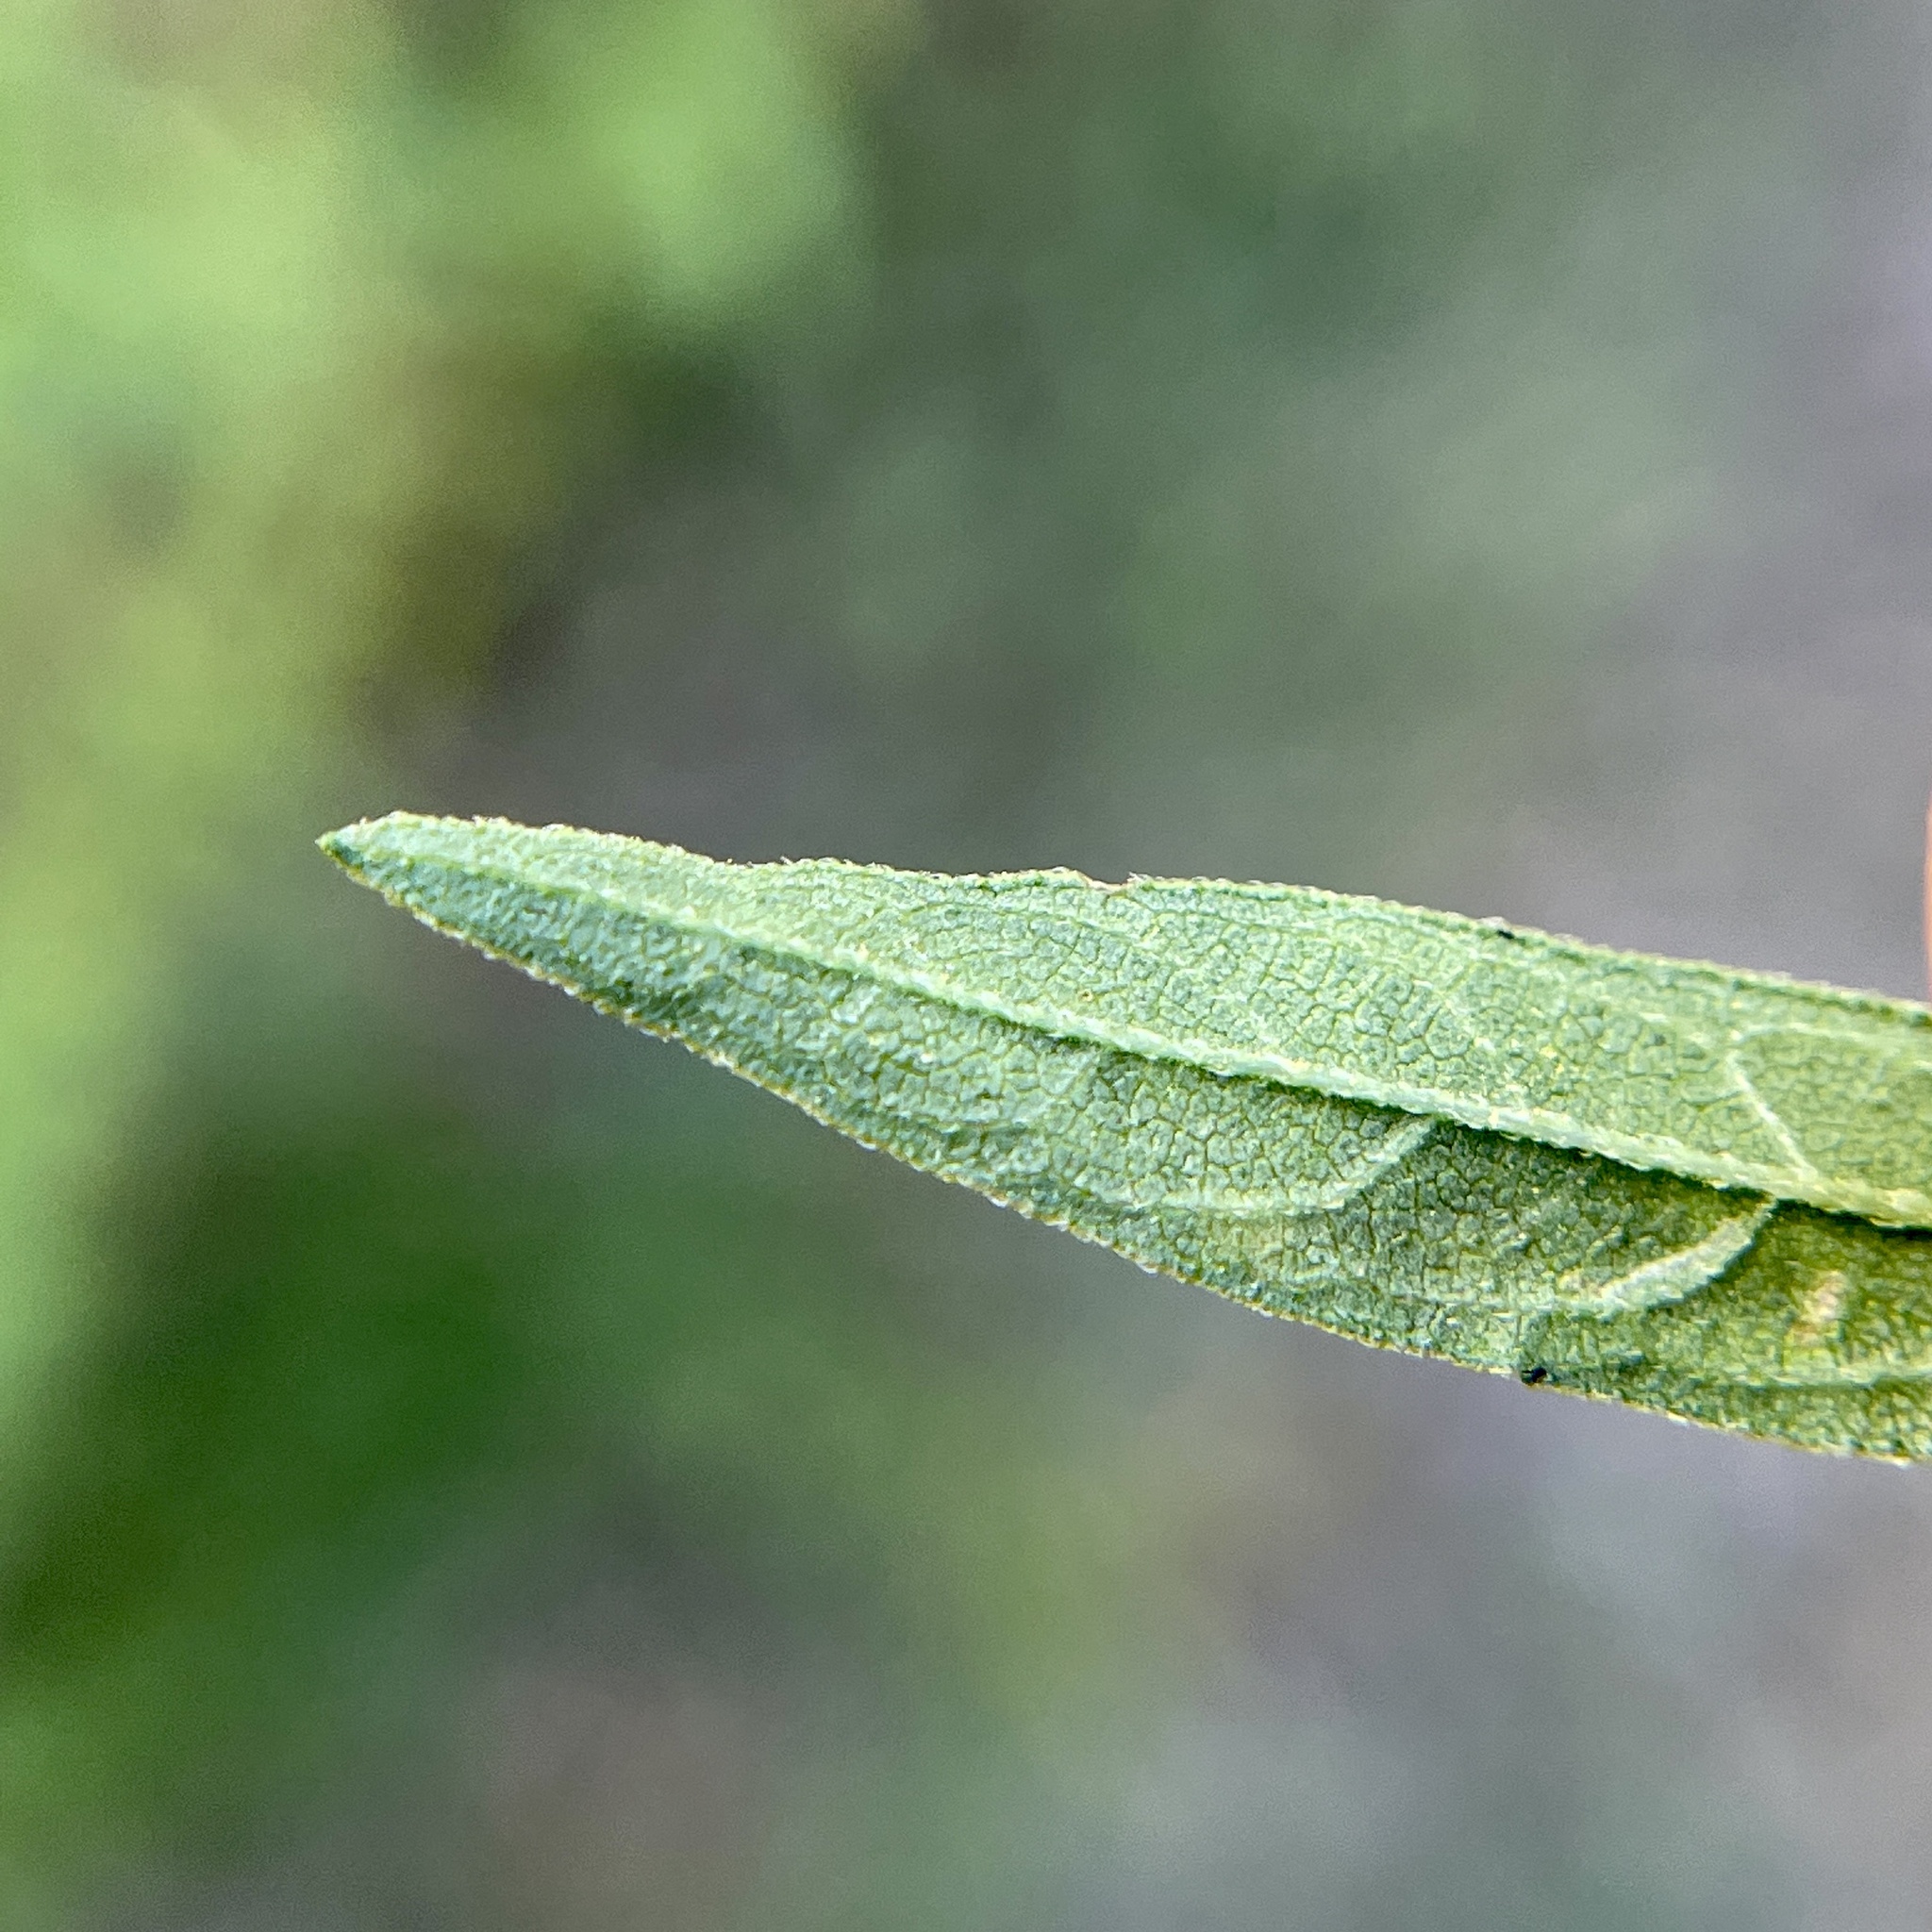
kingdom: Animalia
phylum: Arthropoda
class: Insecta
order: Diptera
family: Agromyzidae
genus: Calycomyza
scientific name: Calycomyza ambrosiae
